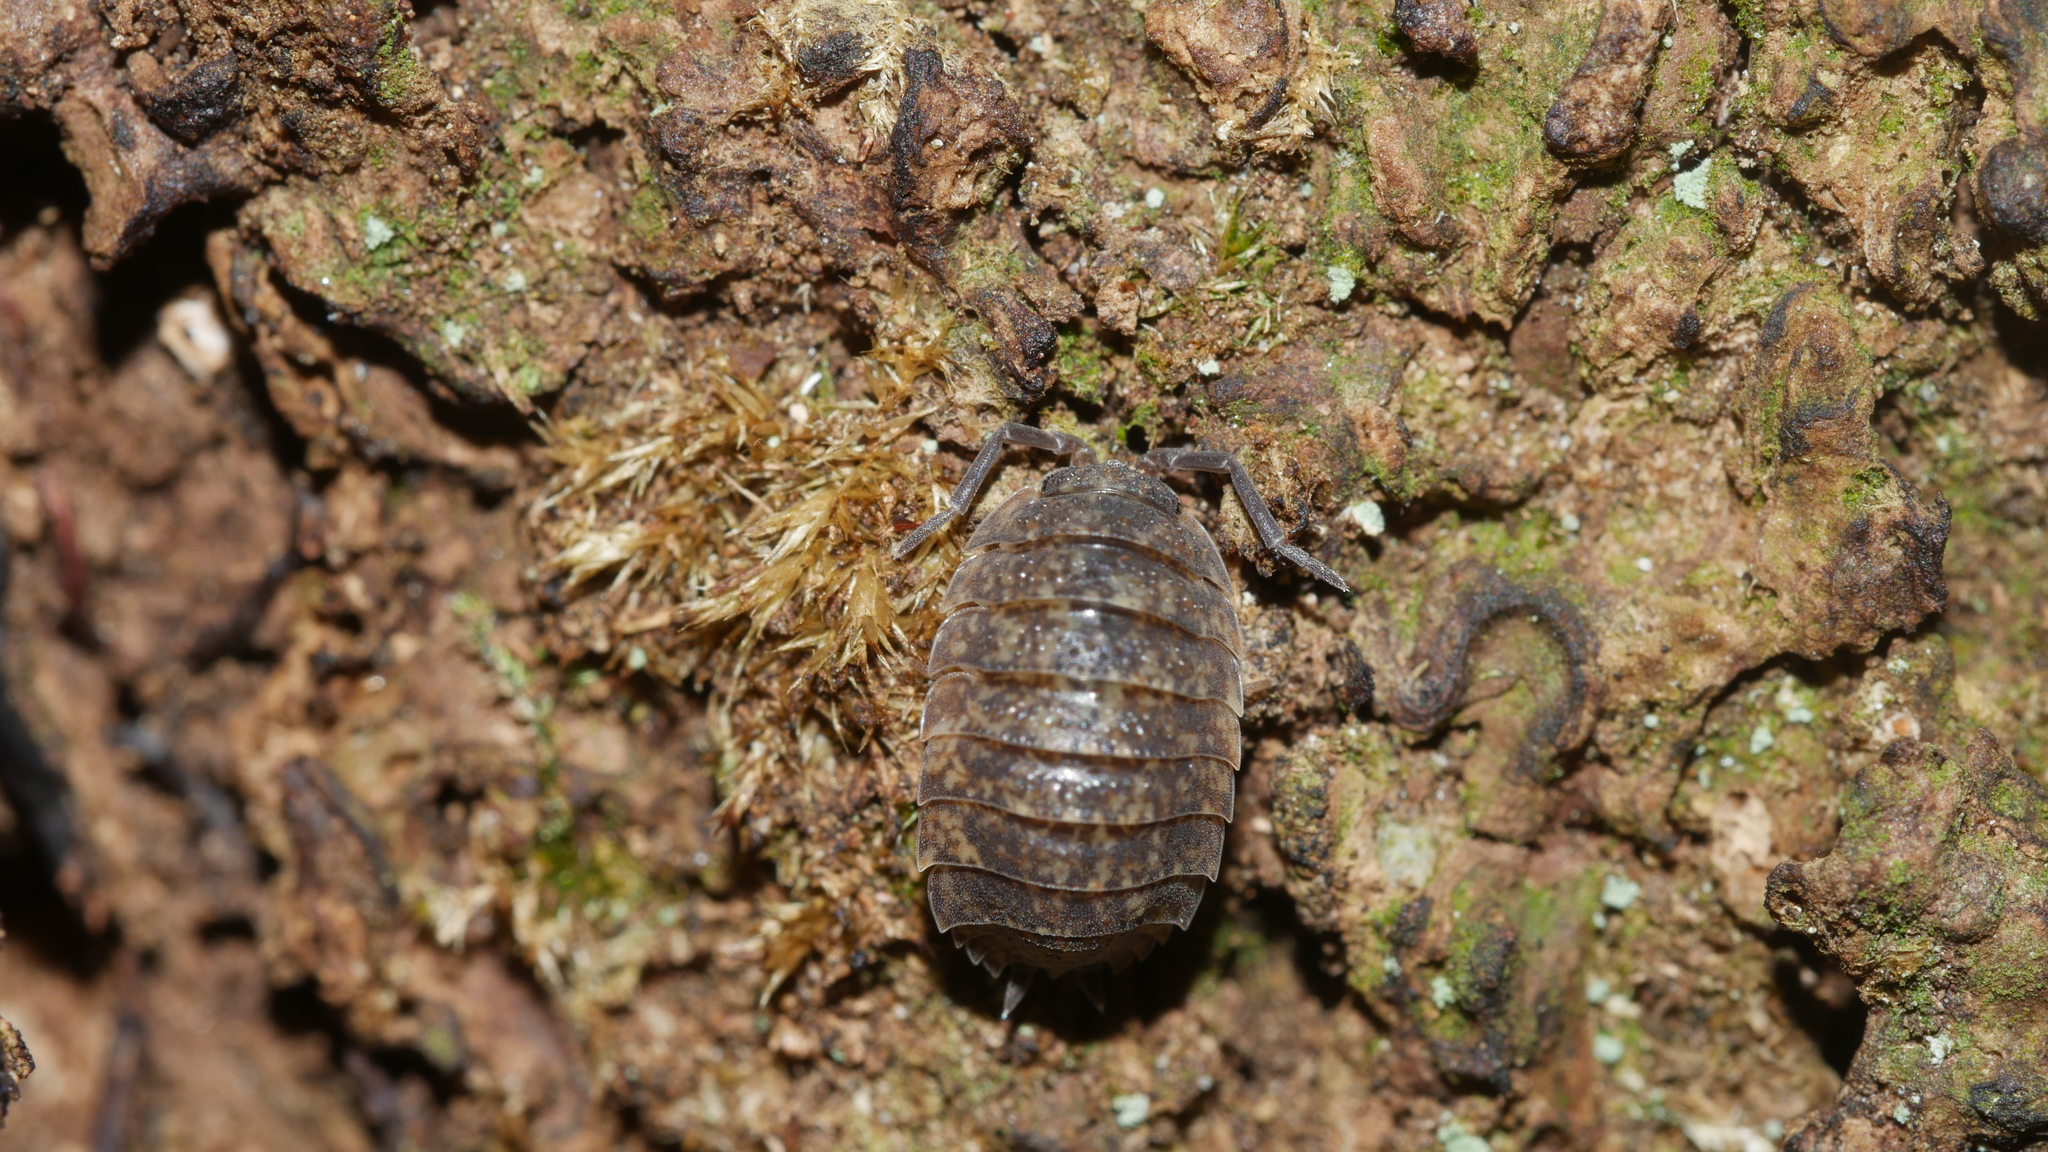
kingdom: Animalia
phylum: Arthropoda
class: Malacostraca
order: Isopoda
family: Porcellionidae
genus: Porcellio
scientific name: Porcellio scaber
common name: Common rough woodlouse
